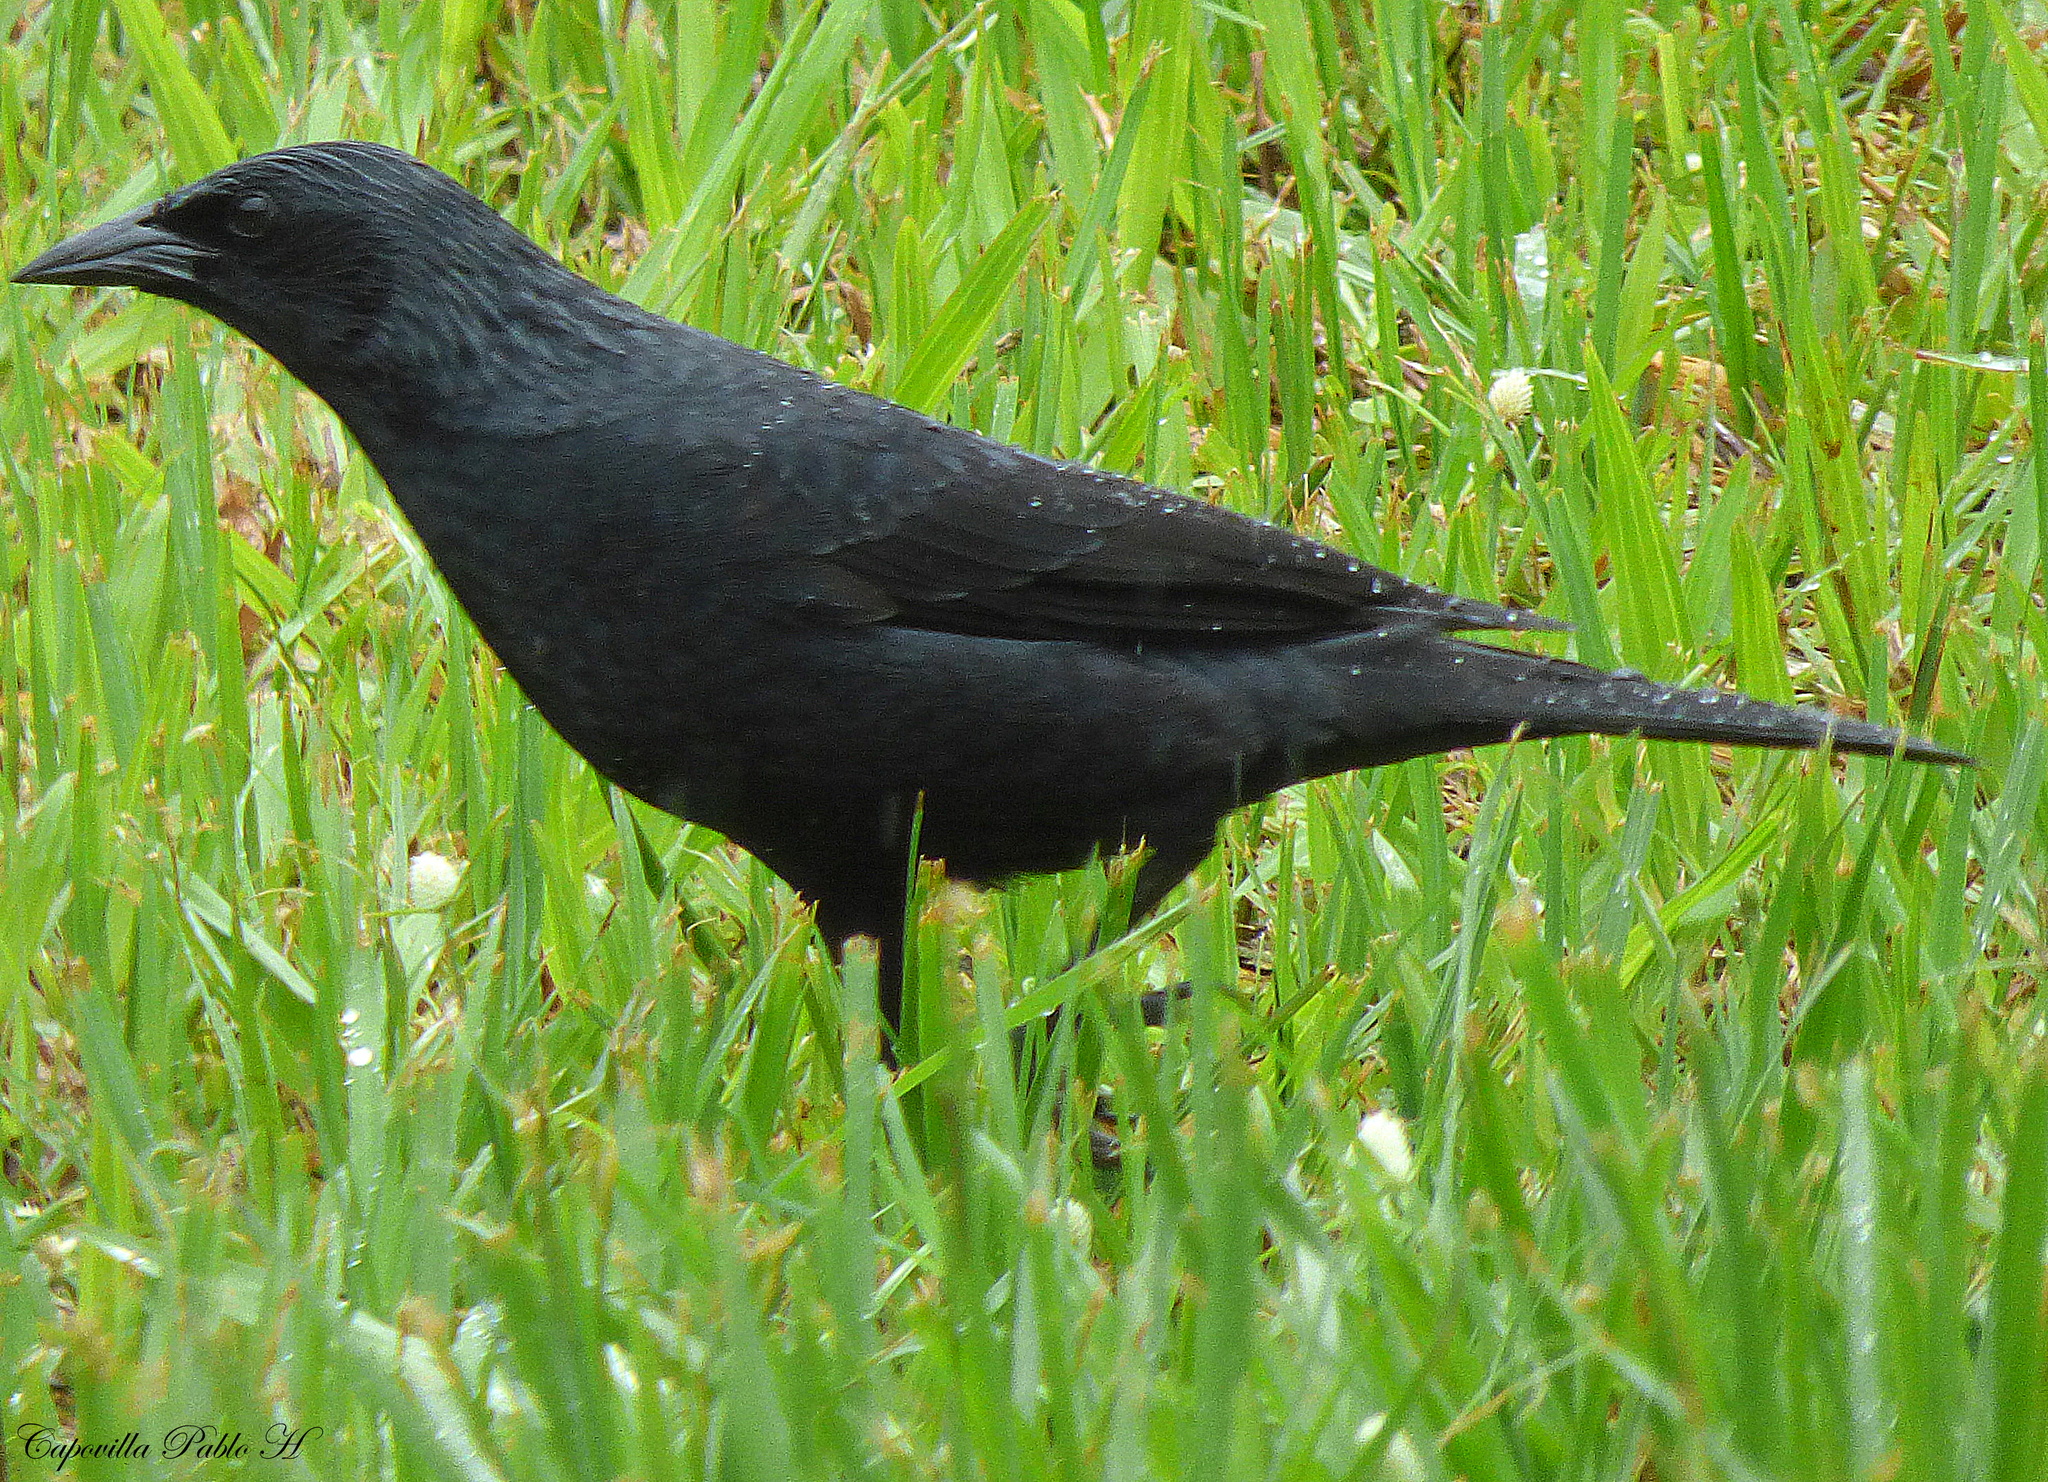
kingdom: Animalia
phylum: Chordata
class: Aves
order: Passeriformes
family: Icteridae
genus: Gnorimopsar
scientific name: Gnorimopsar chopi
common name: Chopi blackbird
